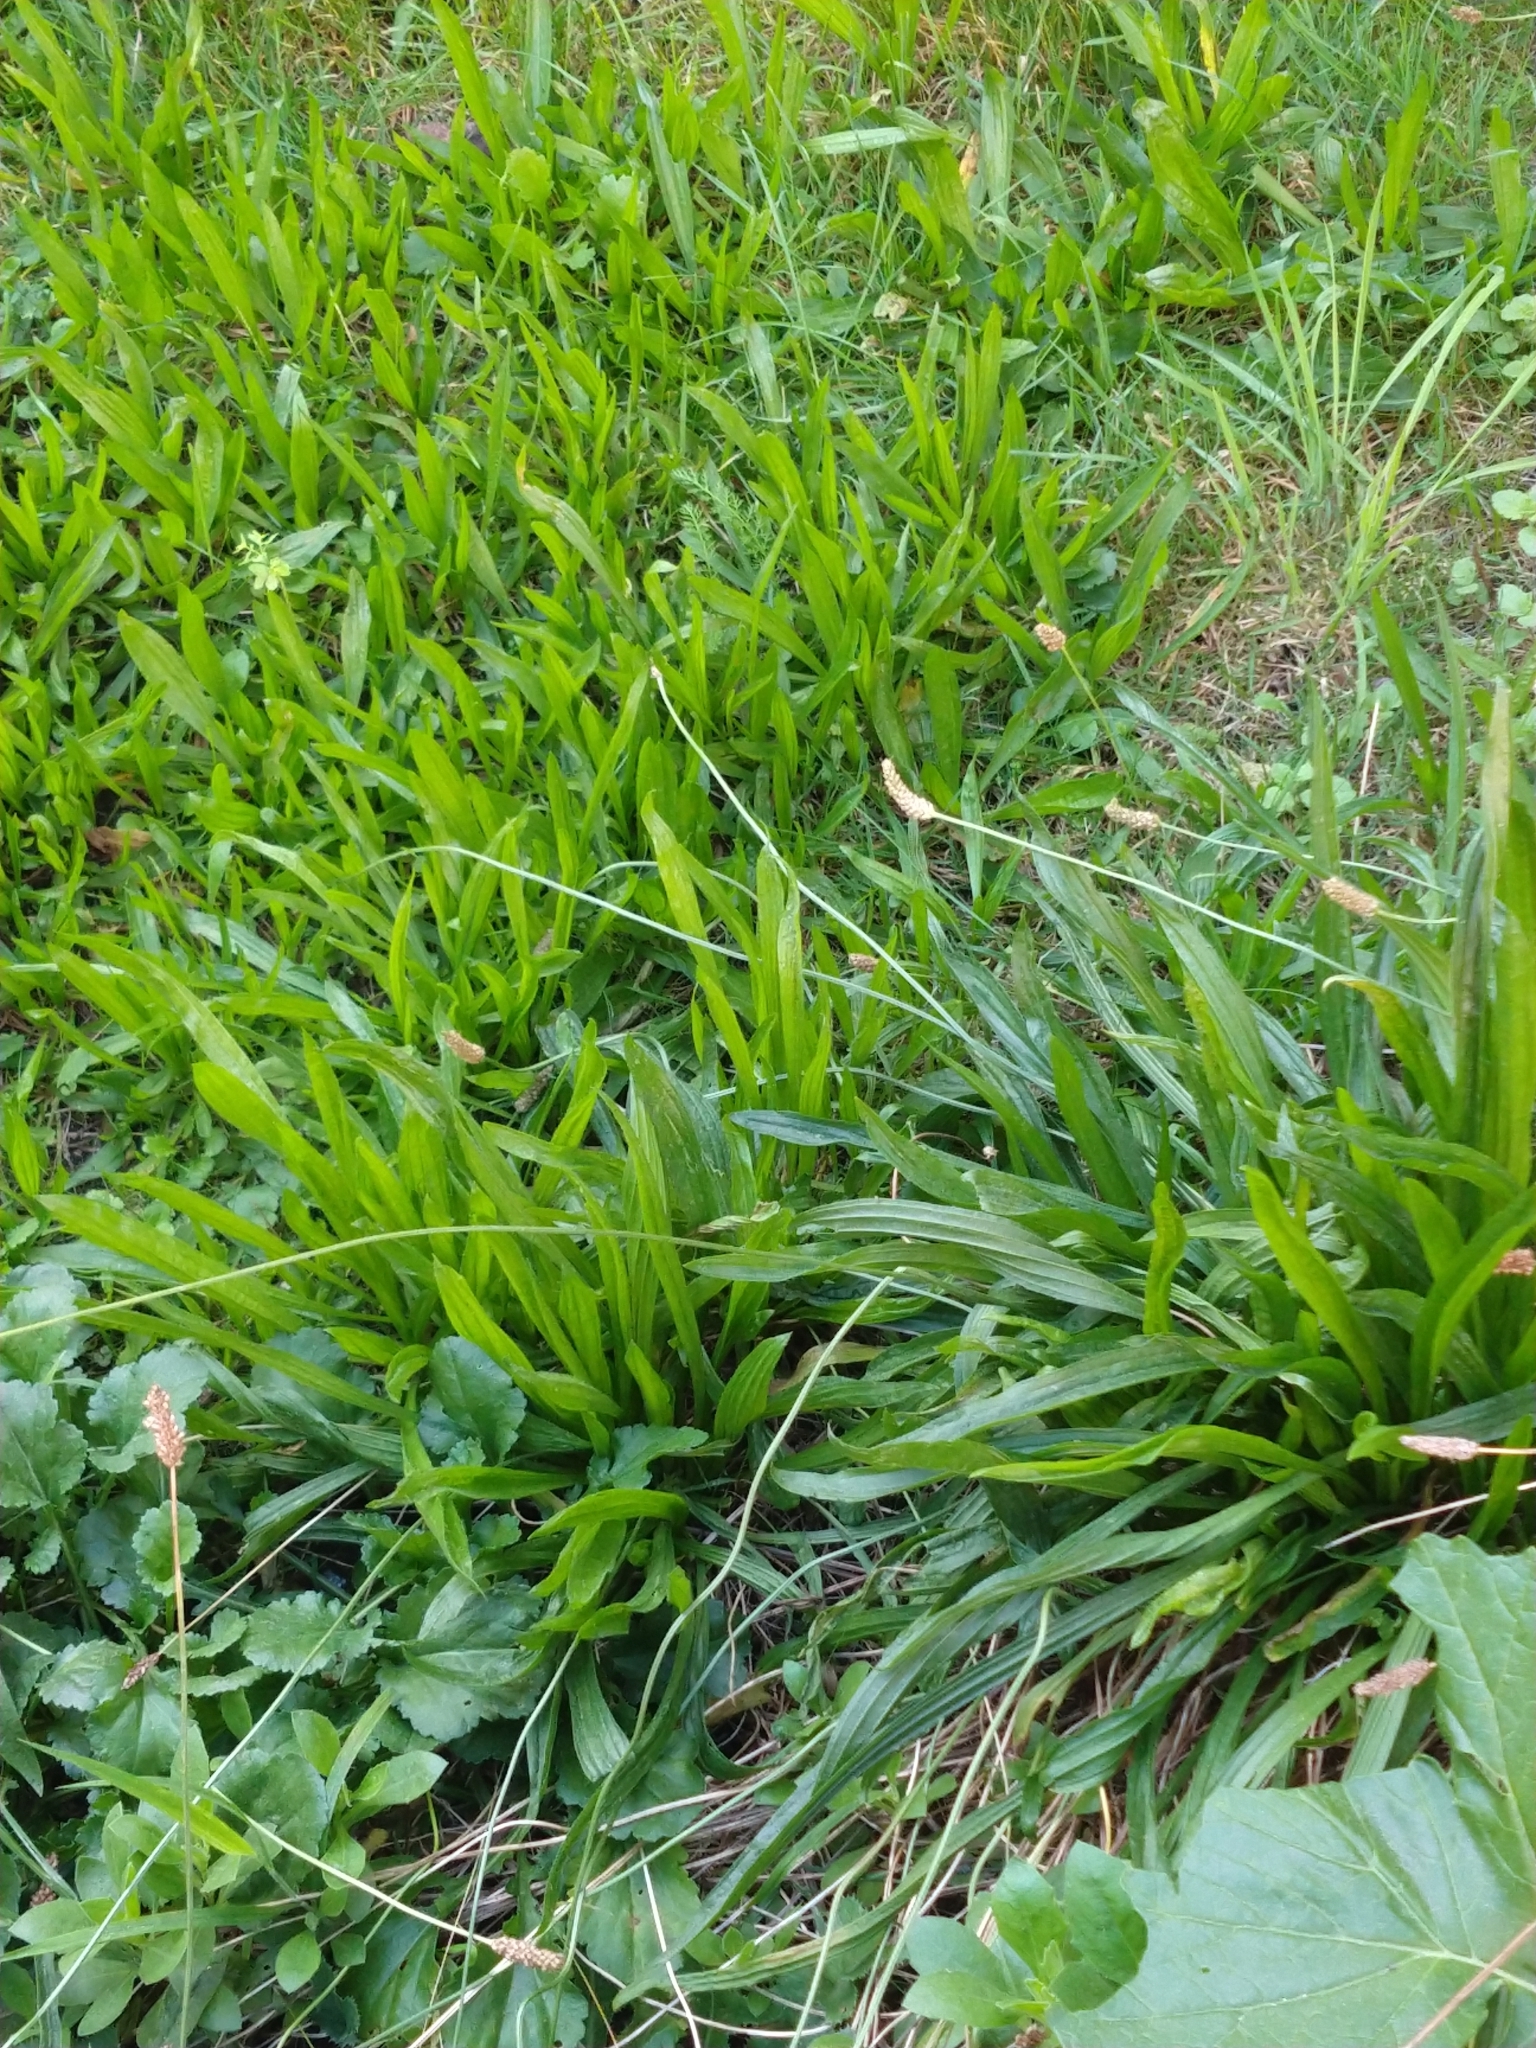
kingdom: Plantae
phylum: Tracheophyta
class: Magnoliopsida
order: Lamiales
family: Plantaginaceae
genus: Plantago
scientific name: Plantago lanceolata
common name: Ribwort plantain
